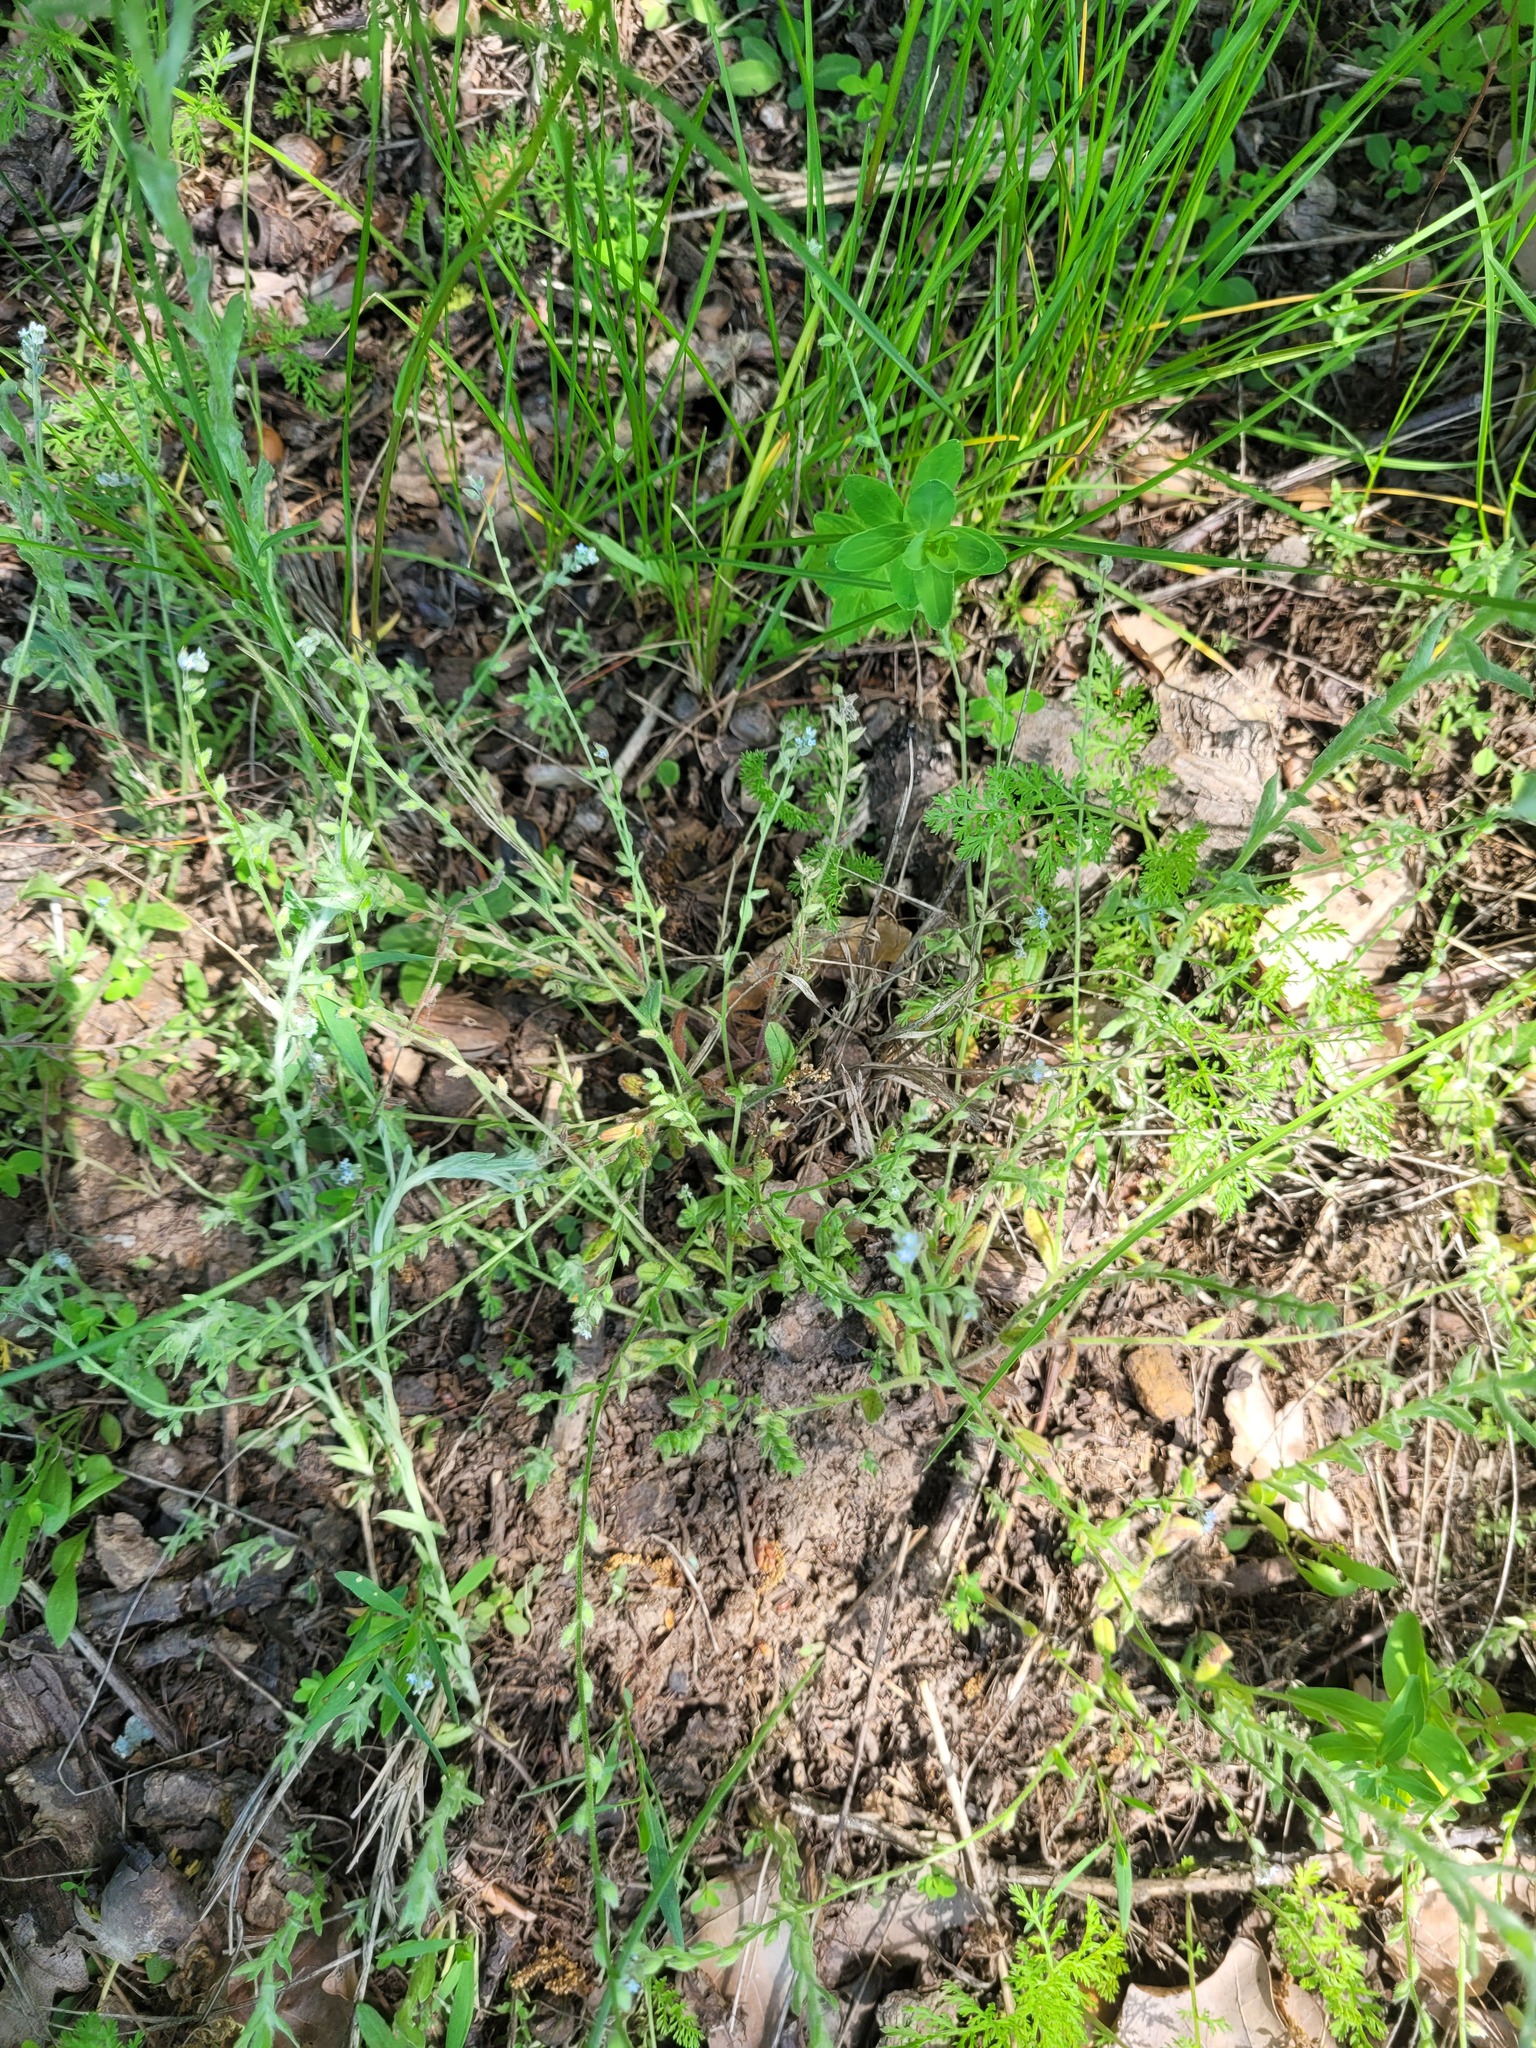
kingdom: Plantae
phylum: Tracheophyta
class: Magnoliopsida
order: Boraginales
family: Boraginaceae
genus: Myosotis
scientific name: Myosotis stricta
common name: Strict forget-me-not
